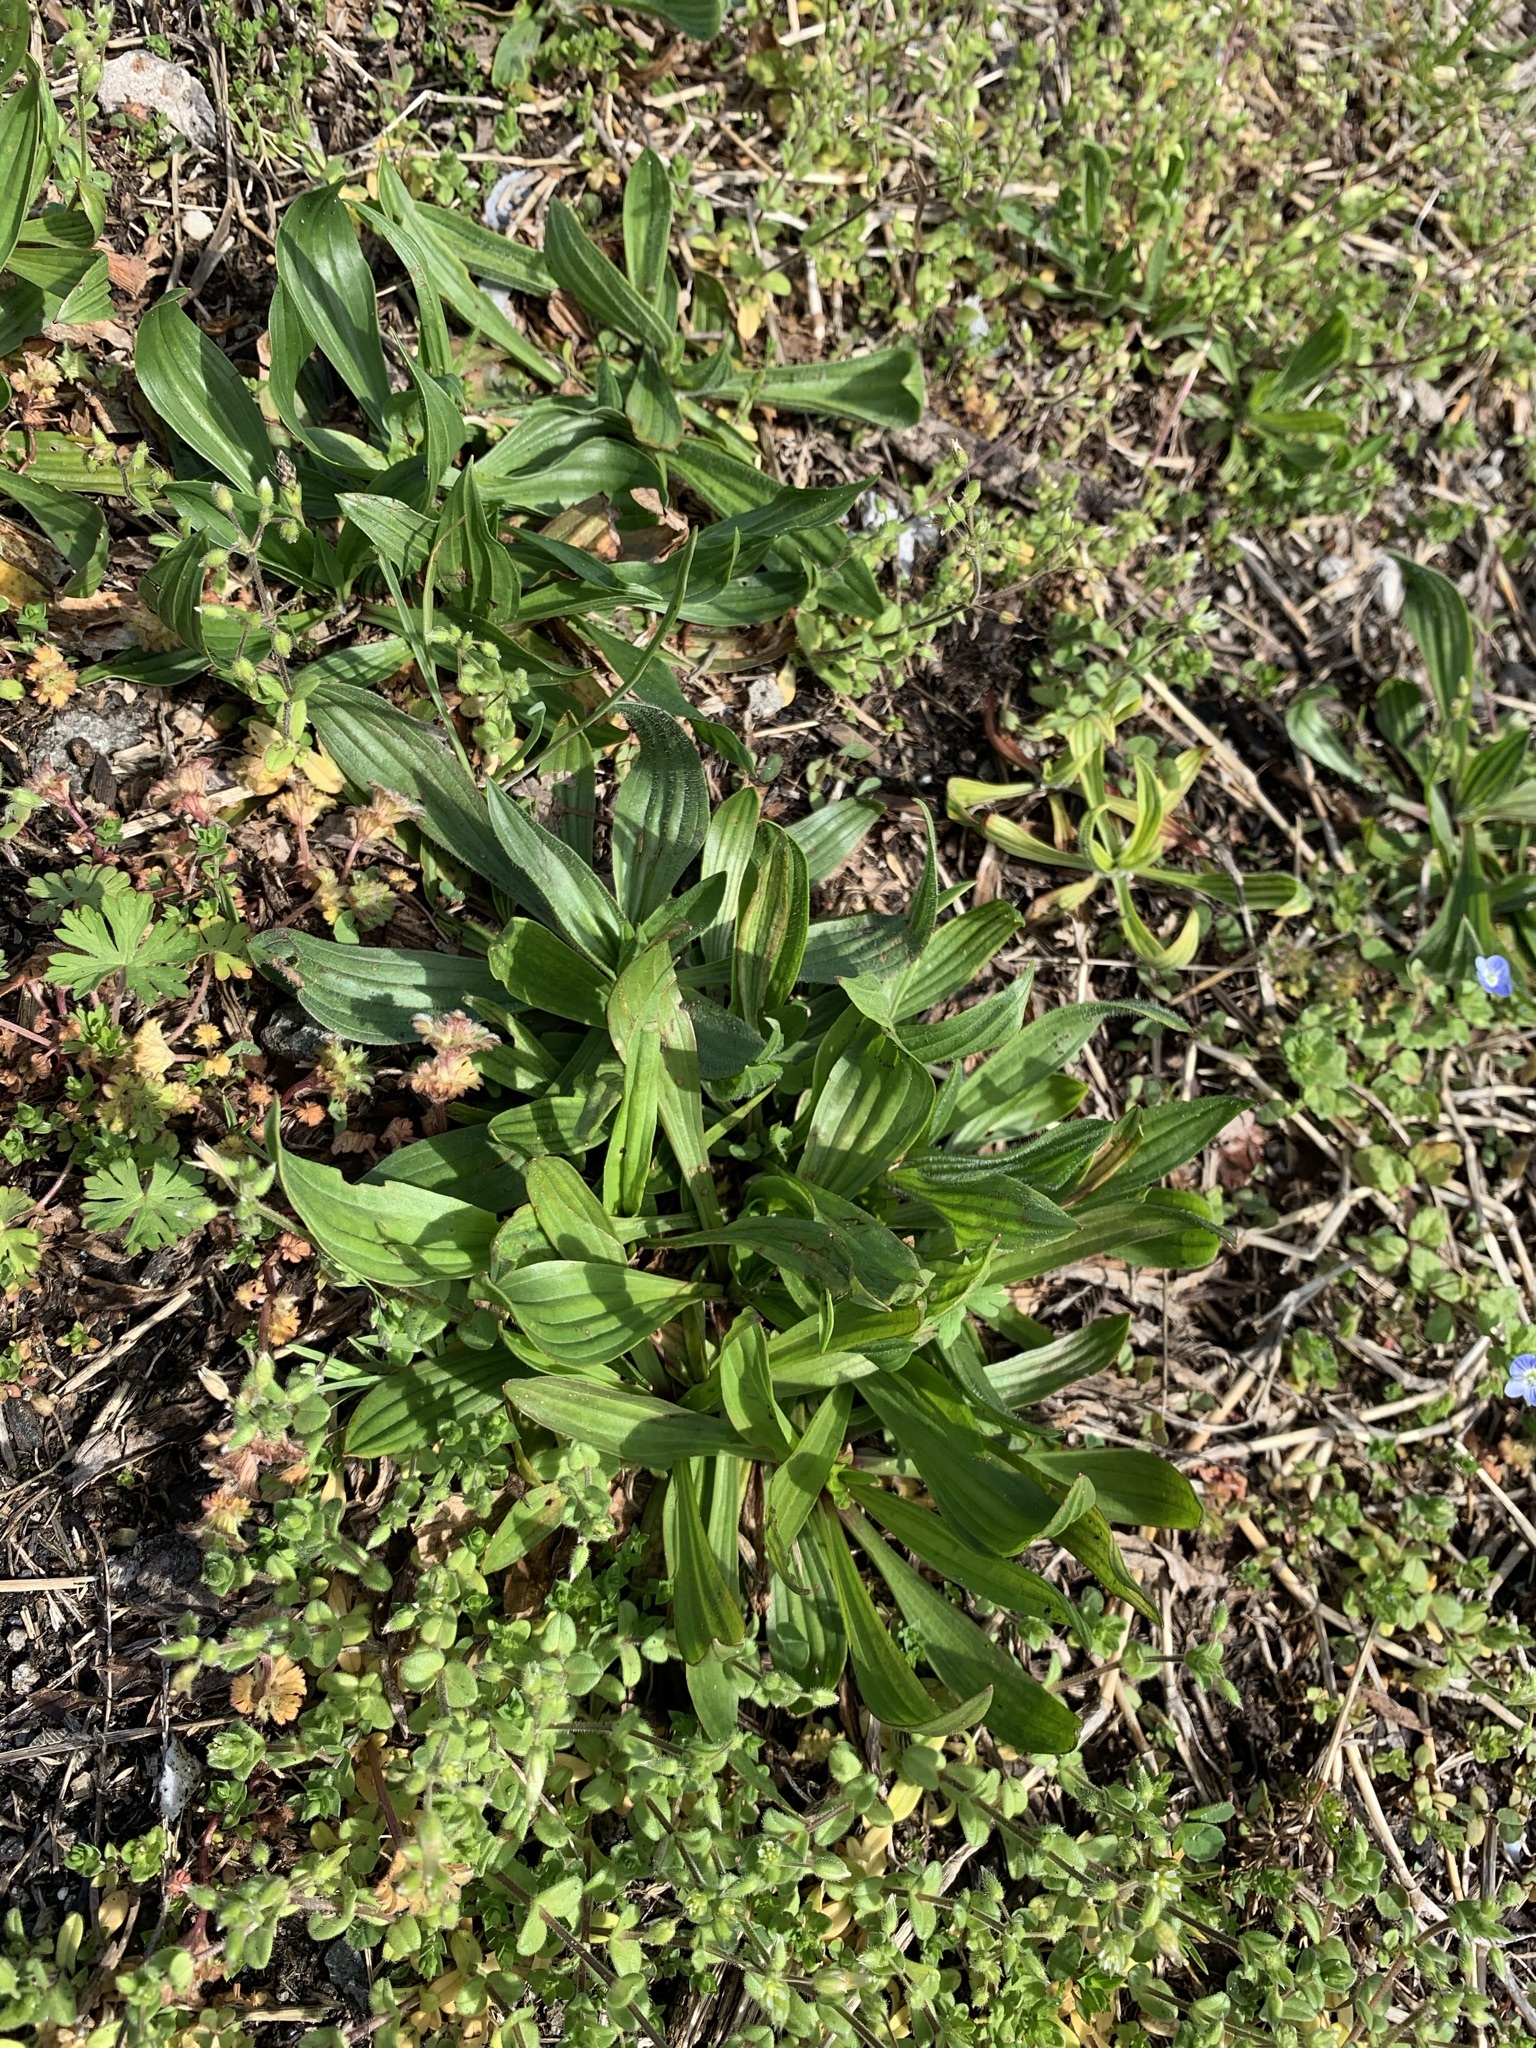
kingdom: Plantae
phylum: Tracheophyta
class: Magnoliopsida
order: Lamiales
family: Plantaginaceae
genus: Plantago
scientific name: Plantago lanceolata
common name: Ribwort plantain
